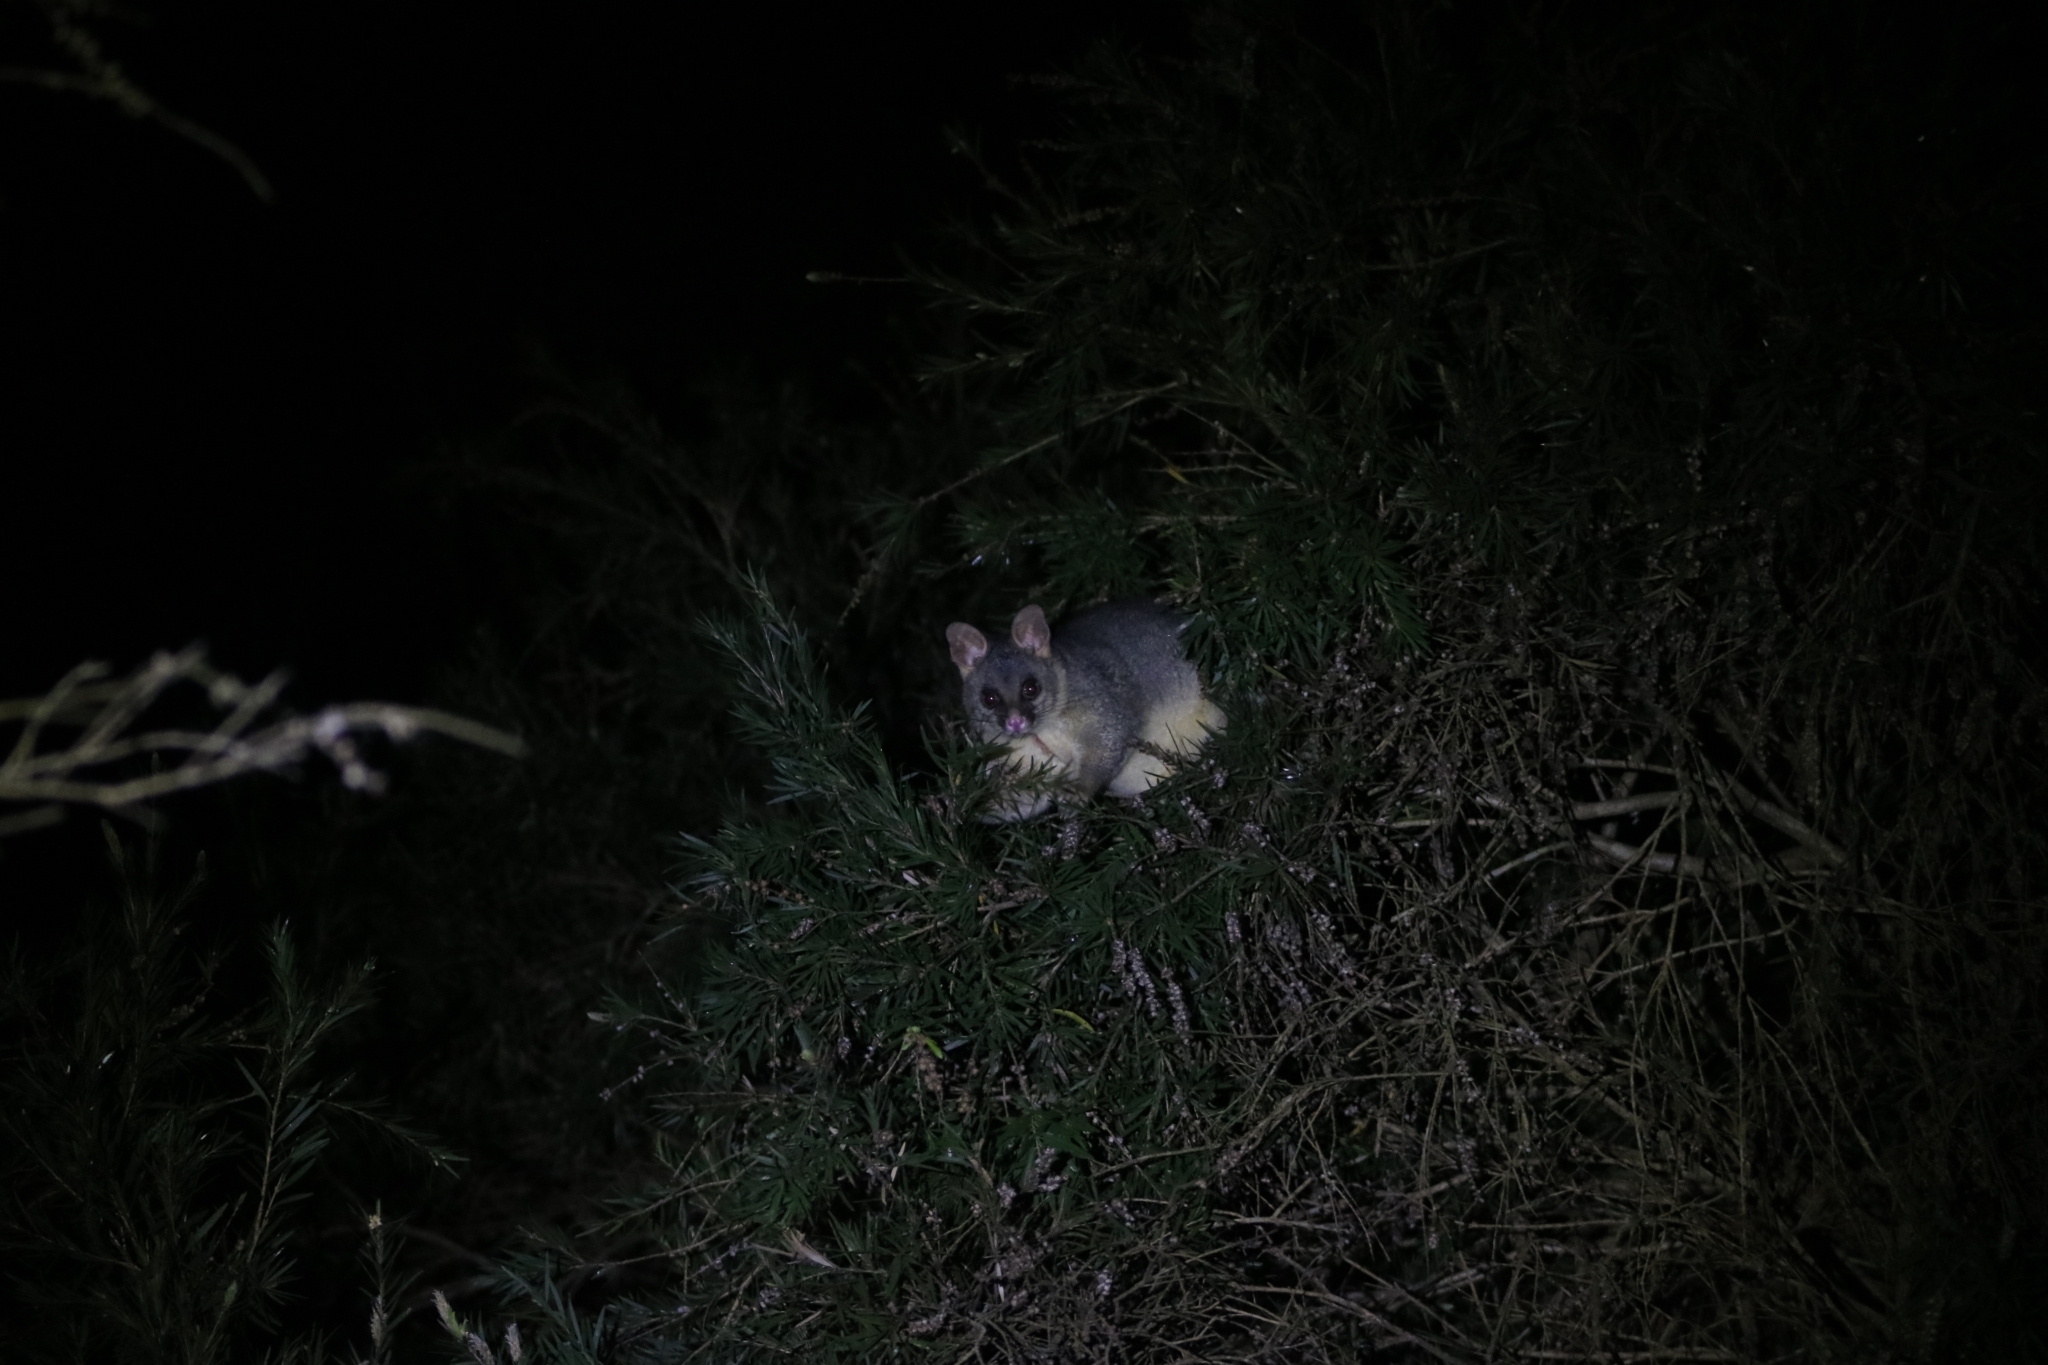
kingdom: Animalia
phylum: Chordata
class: Mammalia
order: Diprotodontia
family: Phalangeridae
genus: Trichosurus
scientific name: Trichosurus vulpecula
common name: Common brushtail
